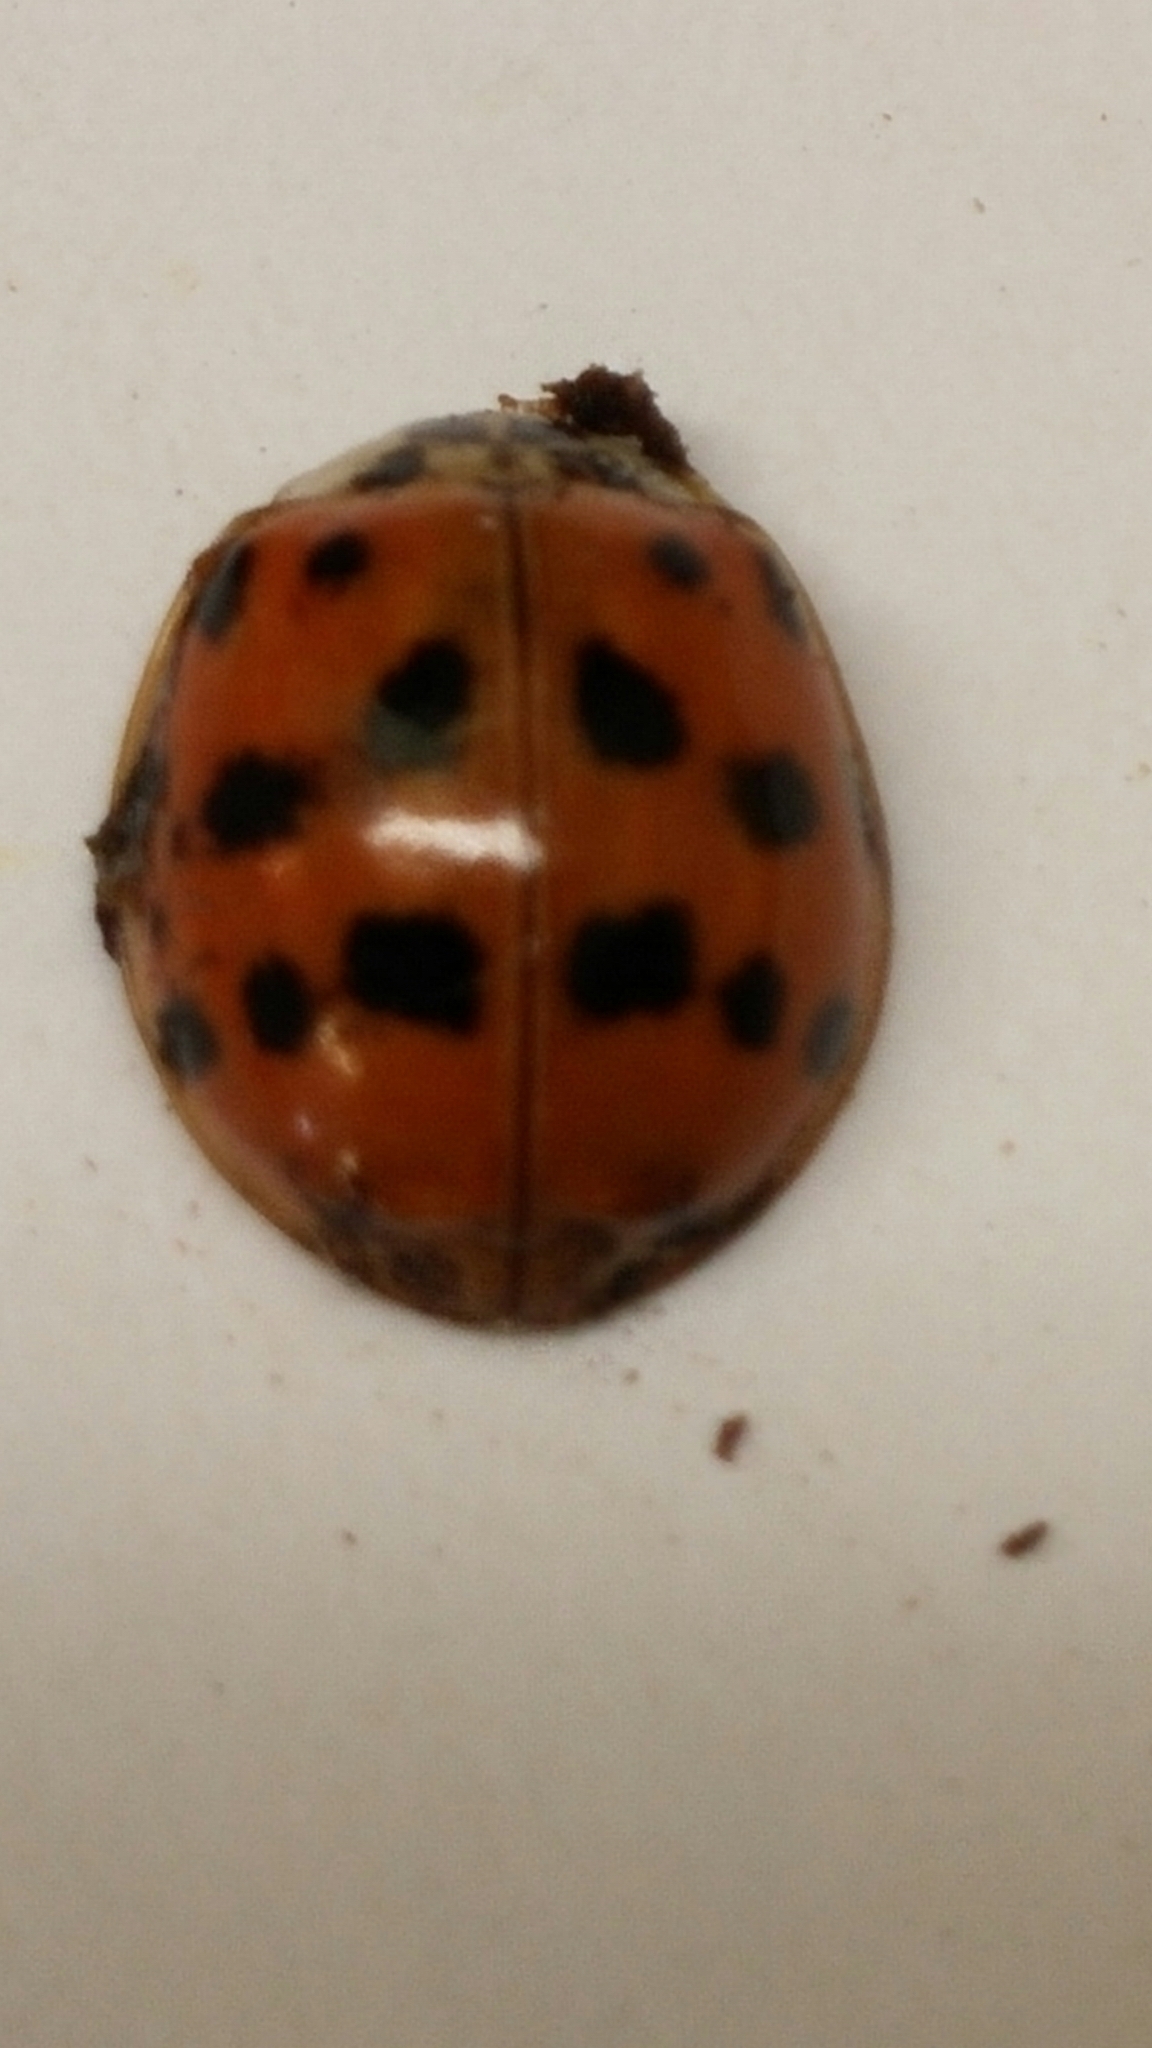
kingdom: Animalia
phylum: Arthropoda
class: Insecta
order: Coleoptera
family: Coccinellidae
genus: Harmonia
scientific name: Harmonia axyridis
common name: Harlequin ladybird
